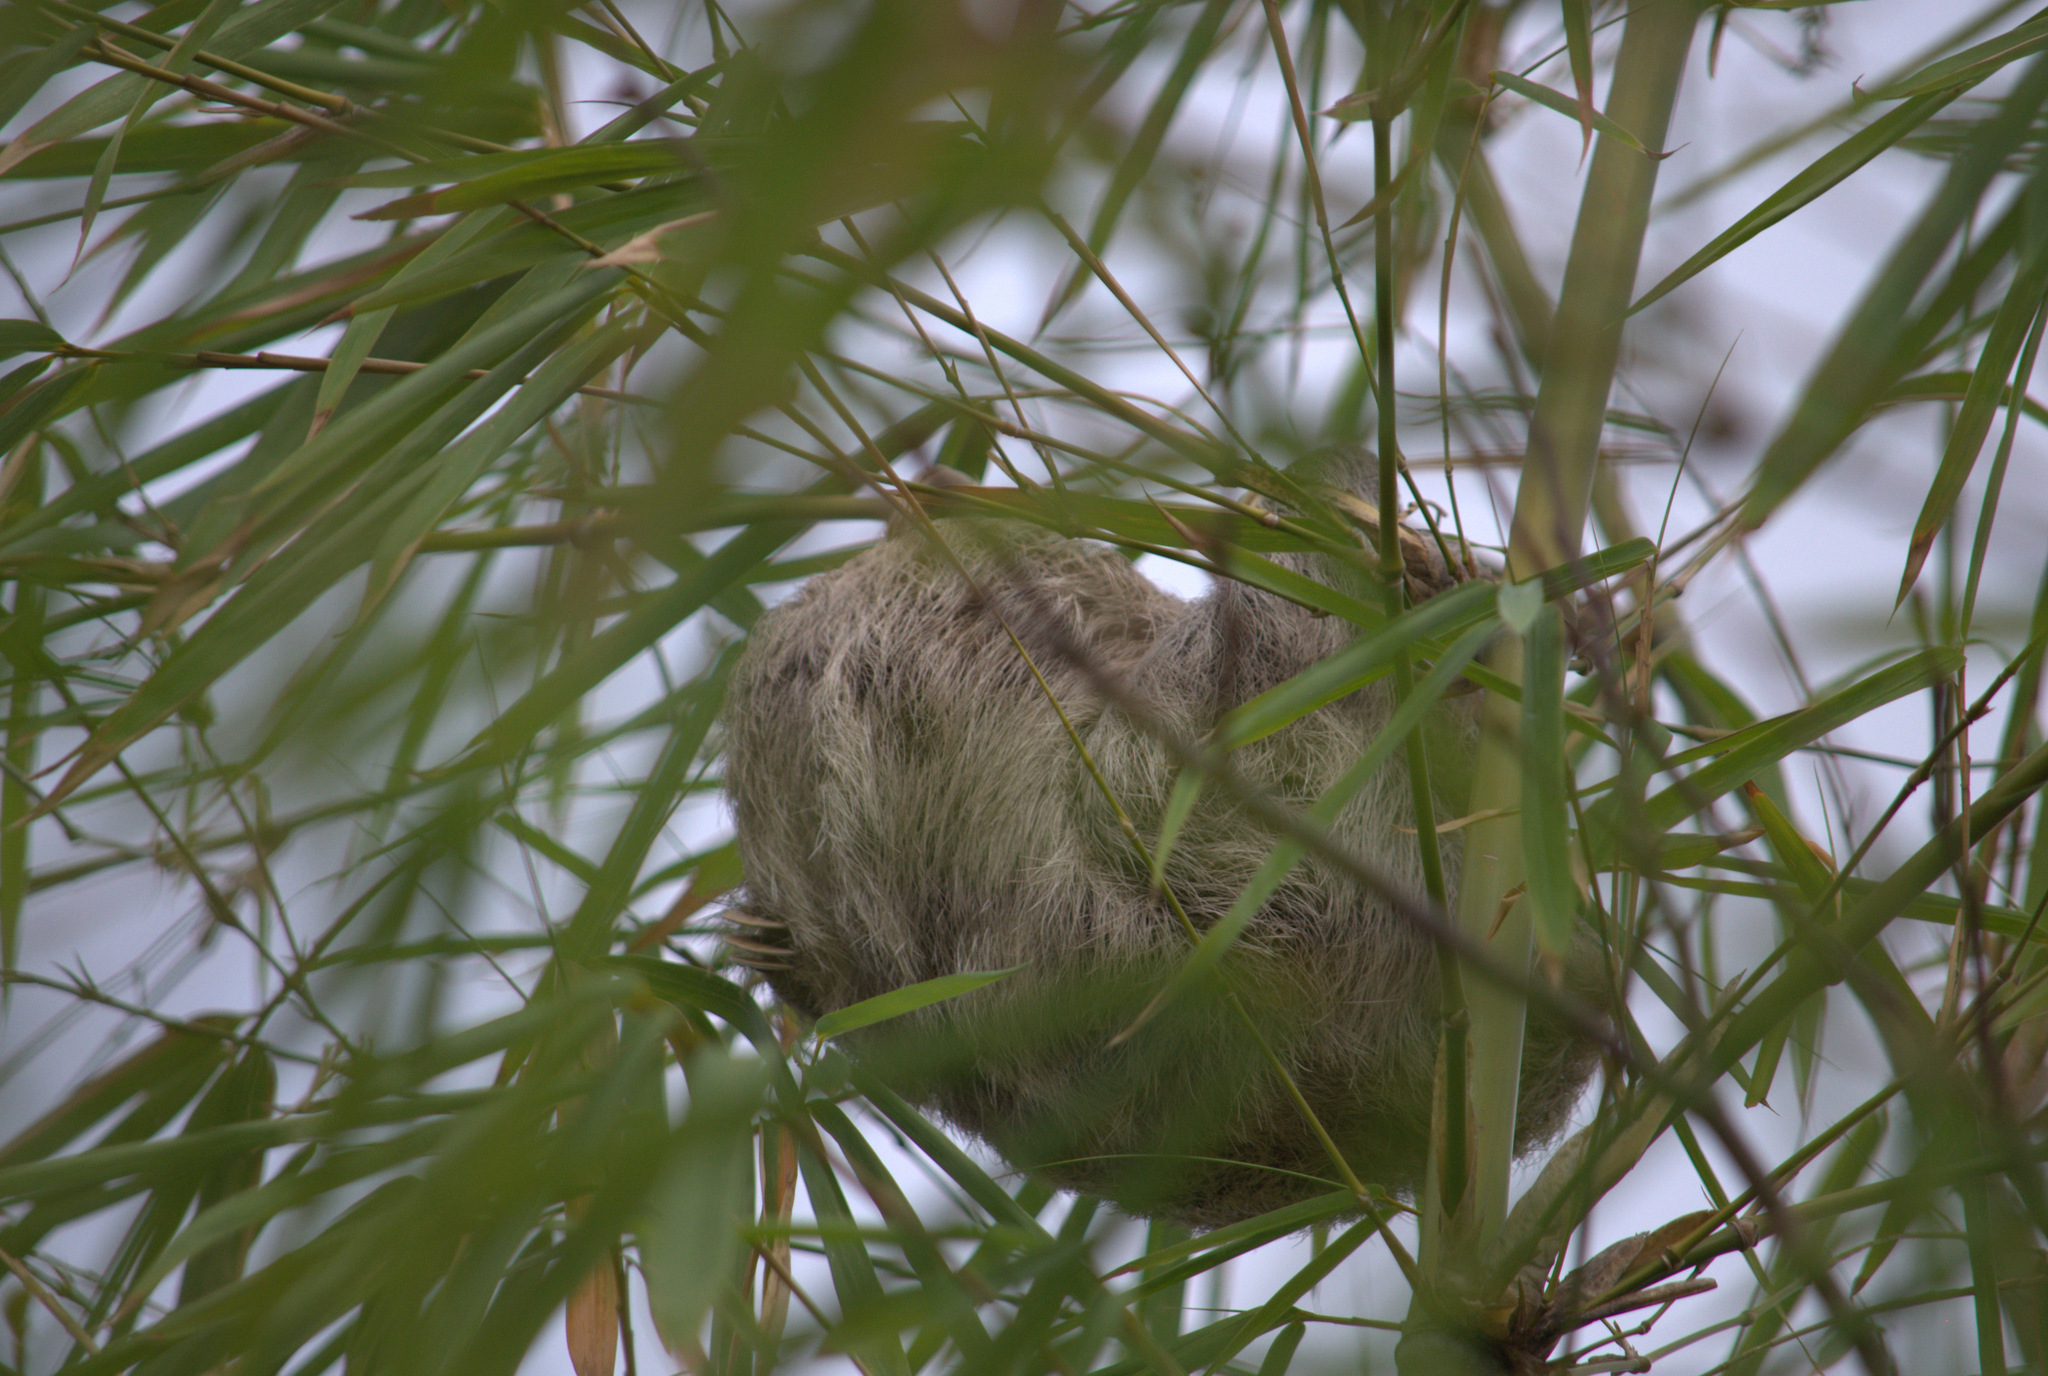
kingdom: Animalia
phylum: Chordata
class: Mammalia
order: Pilosa
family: Bradypodidae
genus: Bradypus
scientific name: Bradypus variegatus
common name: Brown-throated three-toed sloth
